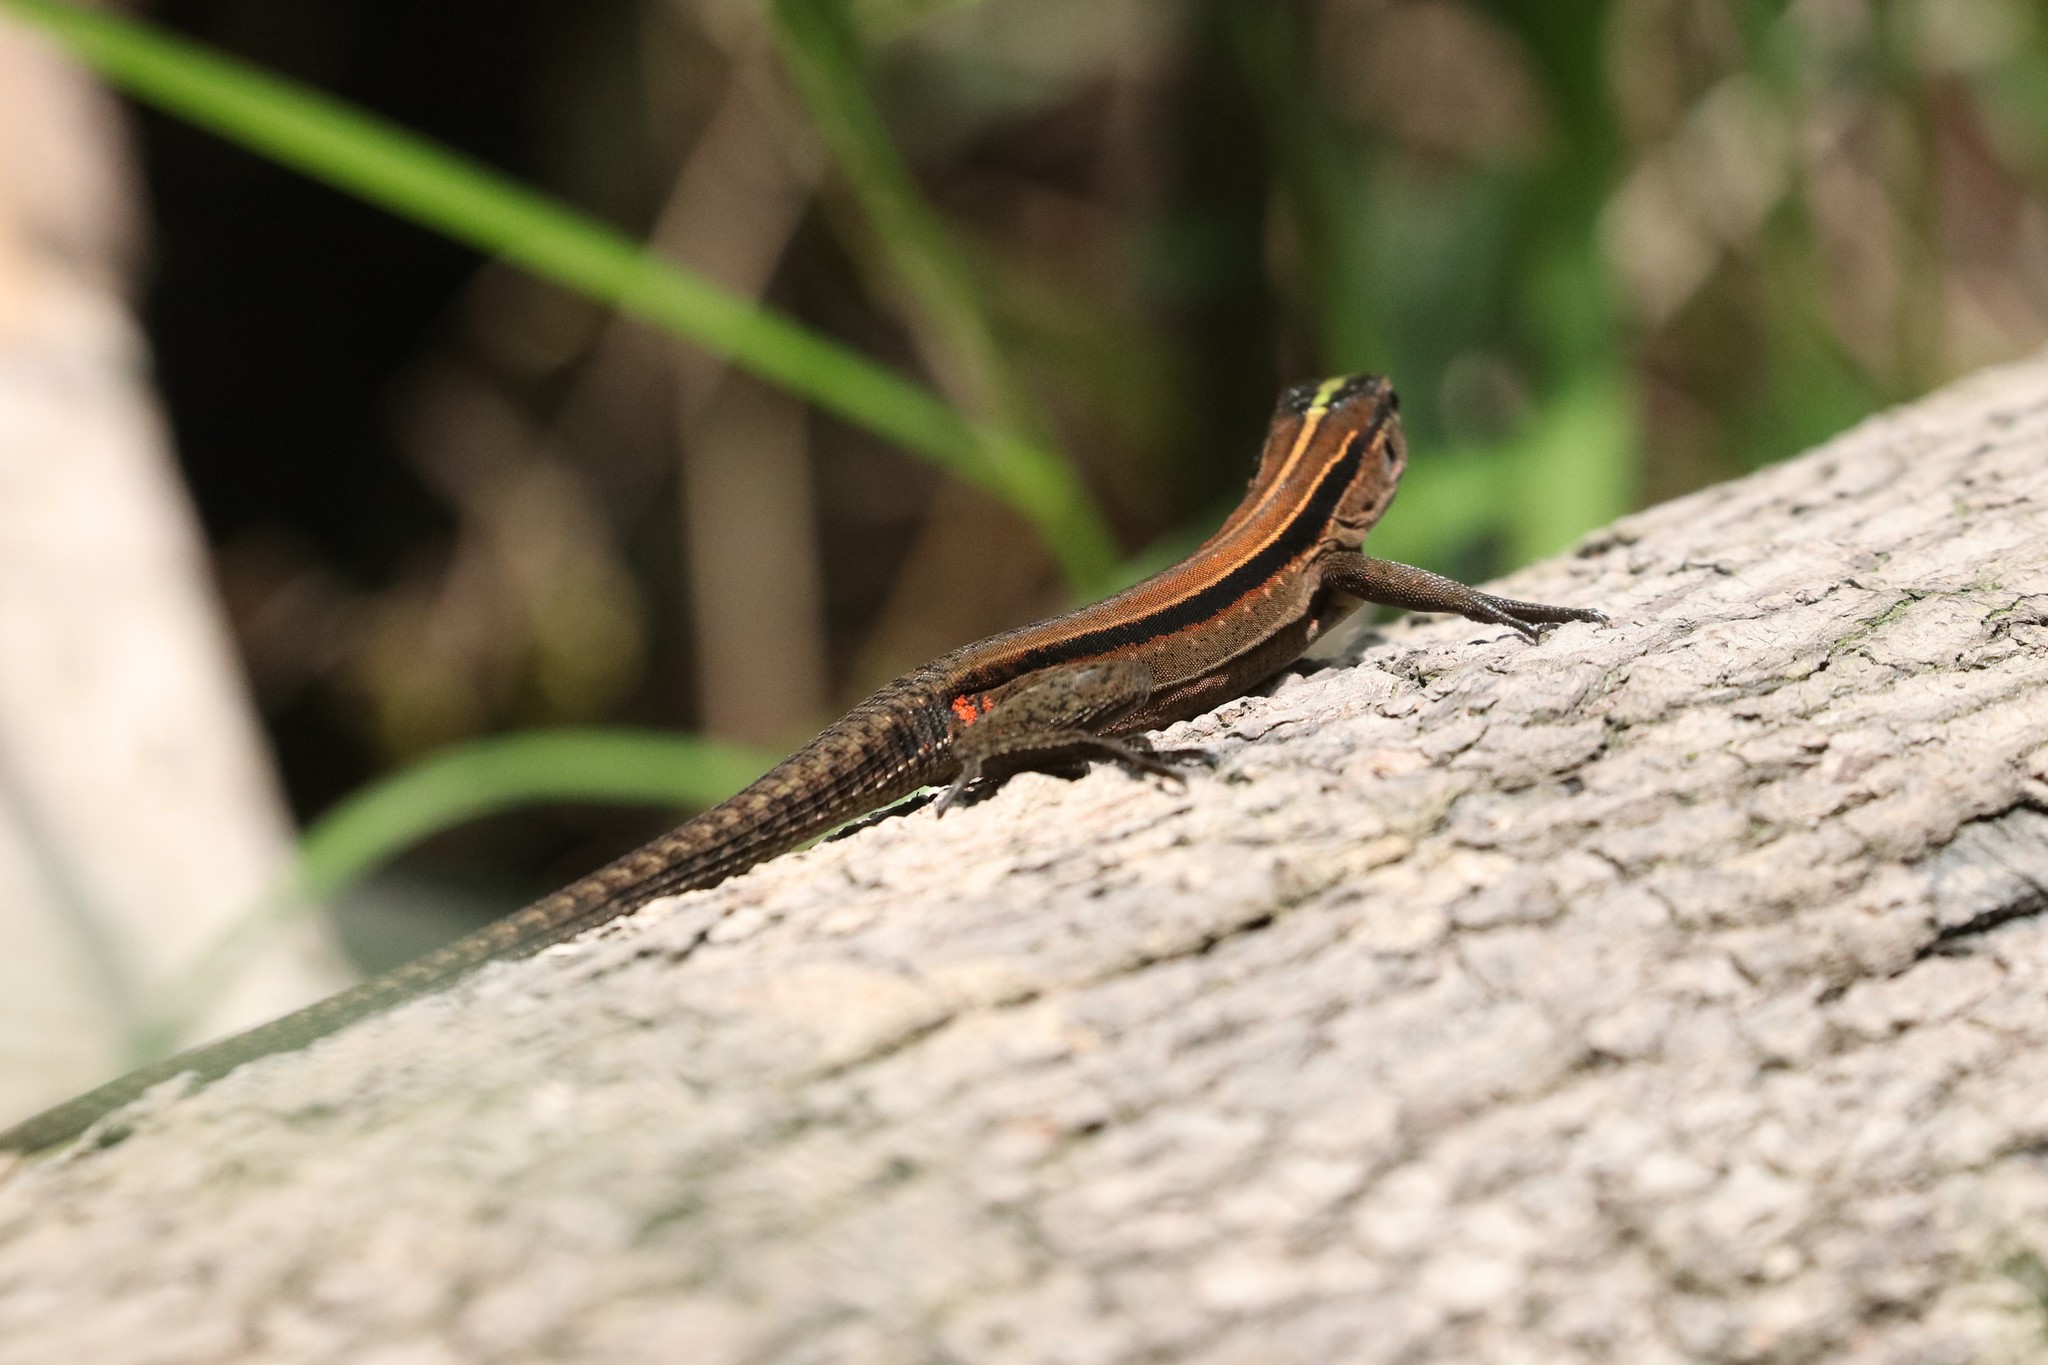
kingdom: Animalia
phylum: Chordata
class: Squamata
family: Teiidae
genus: Kentropyx
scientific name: Kentropyx altamazonica
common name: Cocha whiptail
